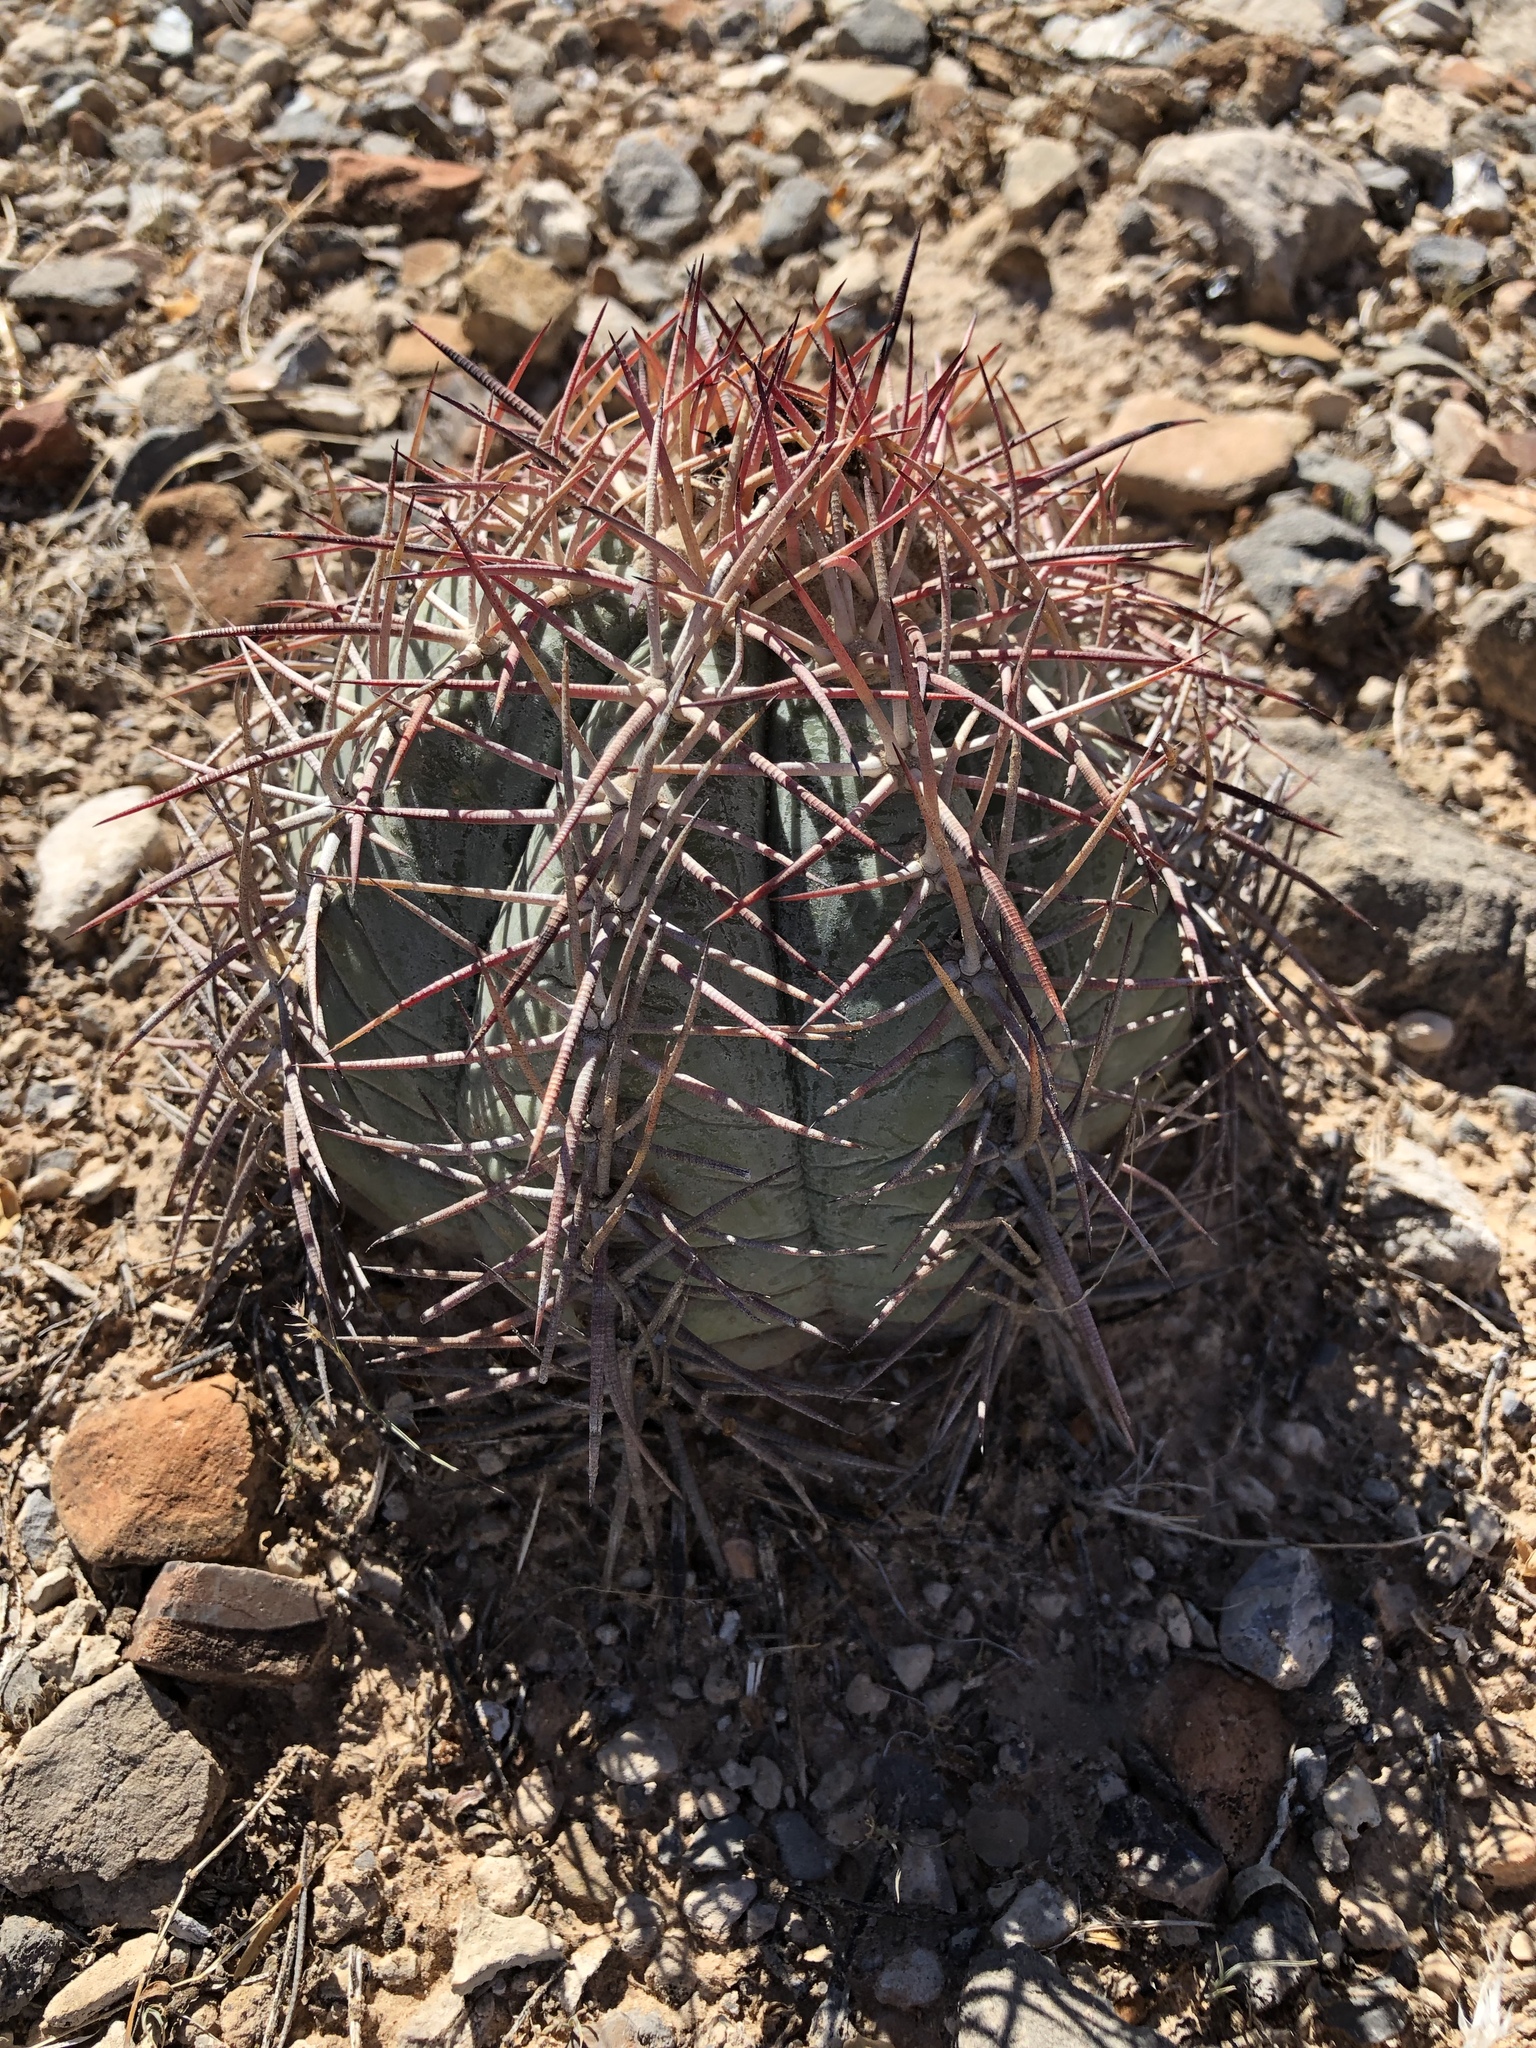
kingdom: Plantae
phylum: Tracheophyta
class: Magnoliopsida
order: Caryophyllales
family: Cactaceae
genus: Echinocactus
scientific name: Echinocactus horizonthalonius
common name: Devilshead
